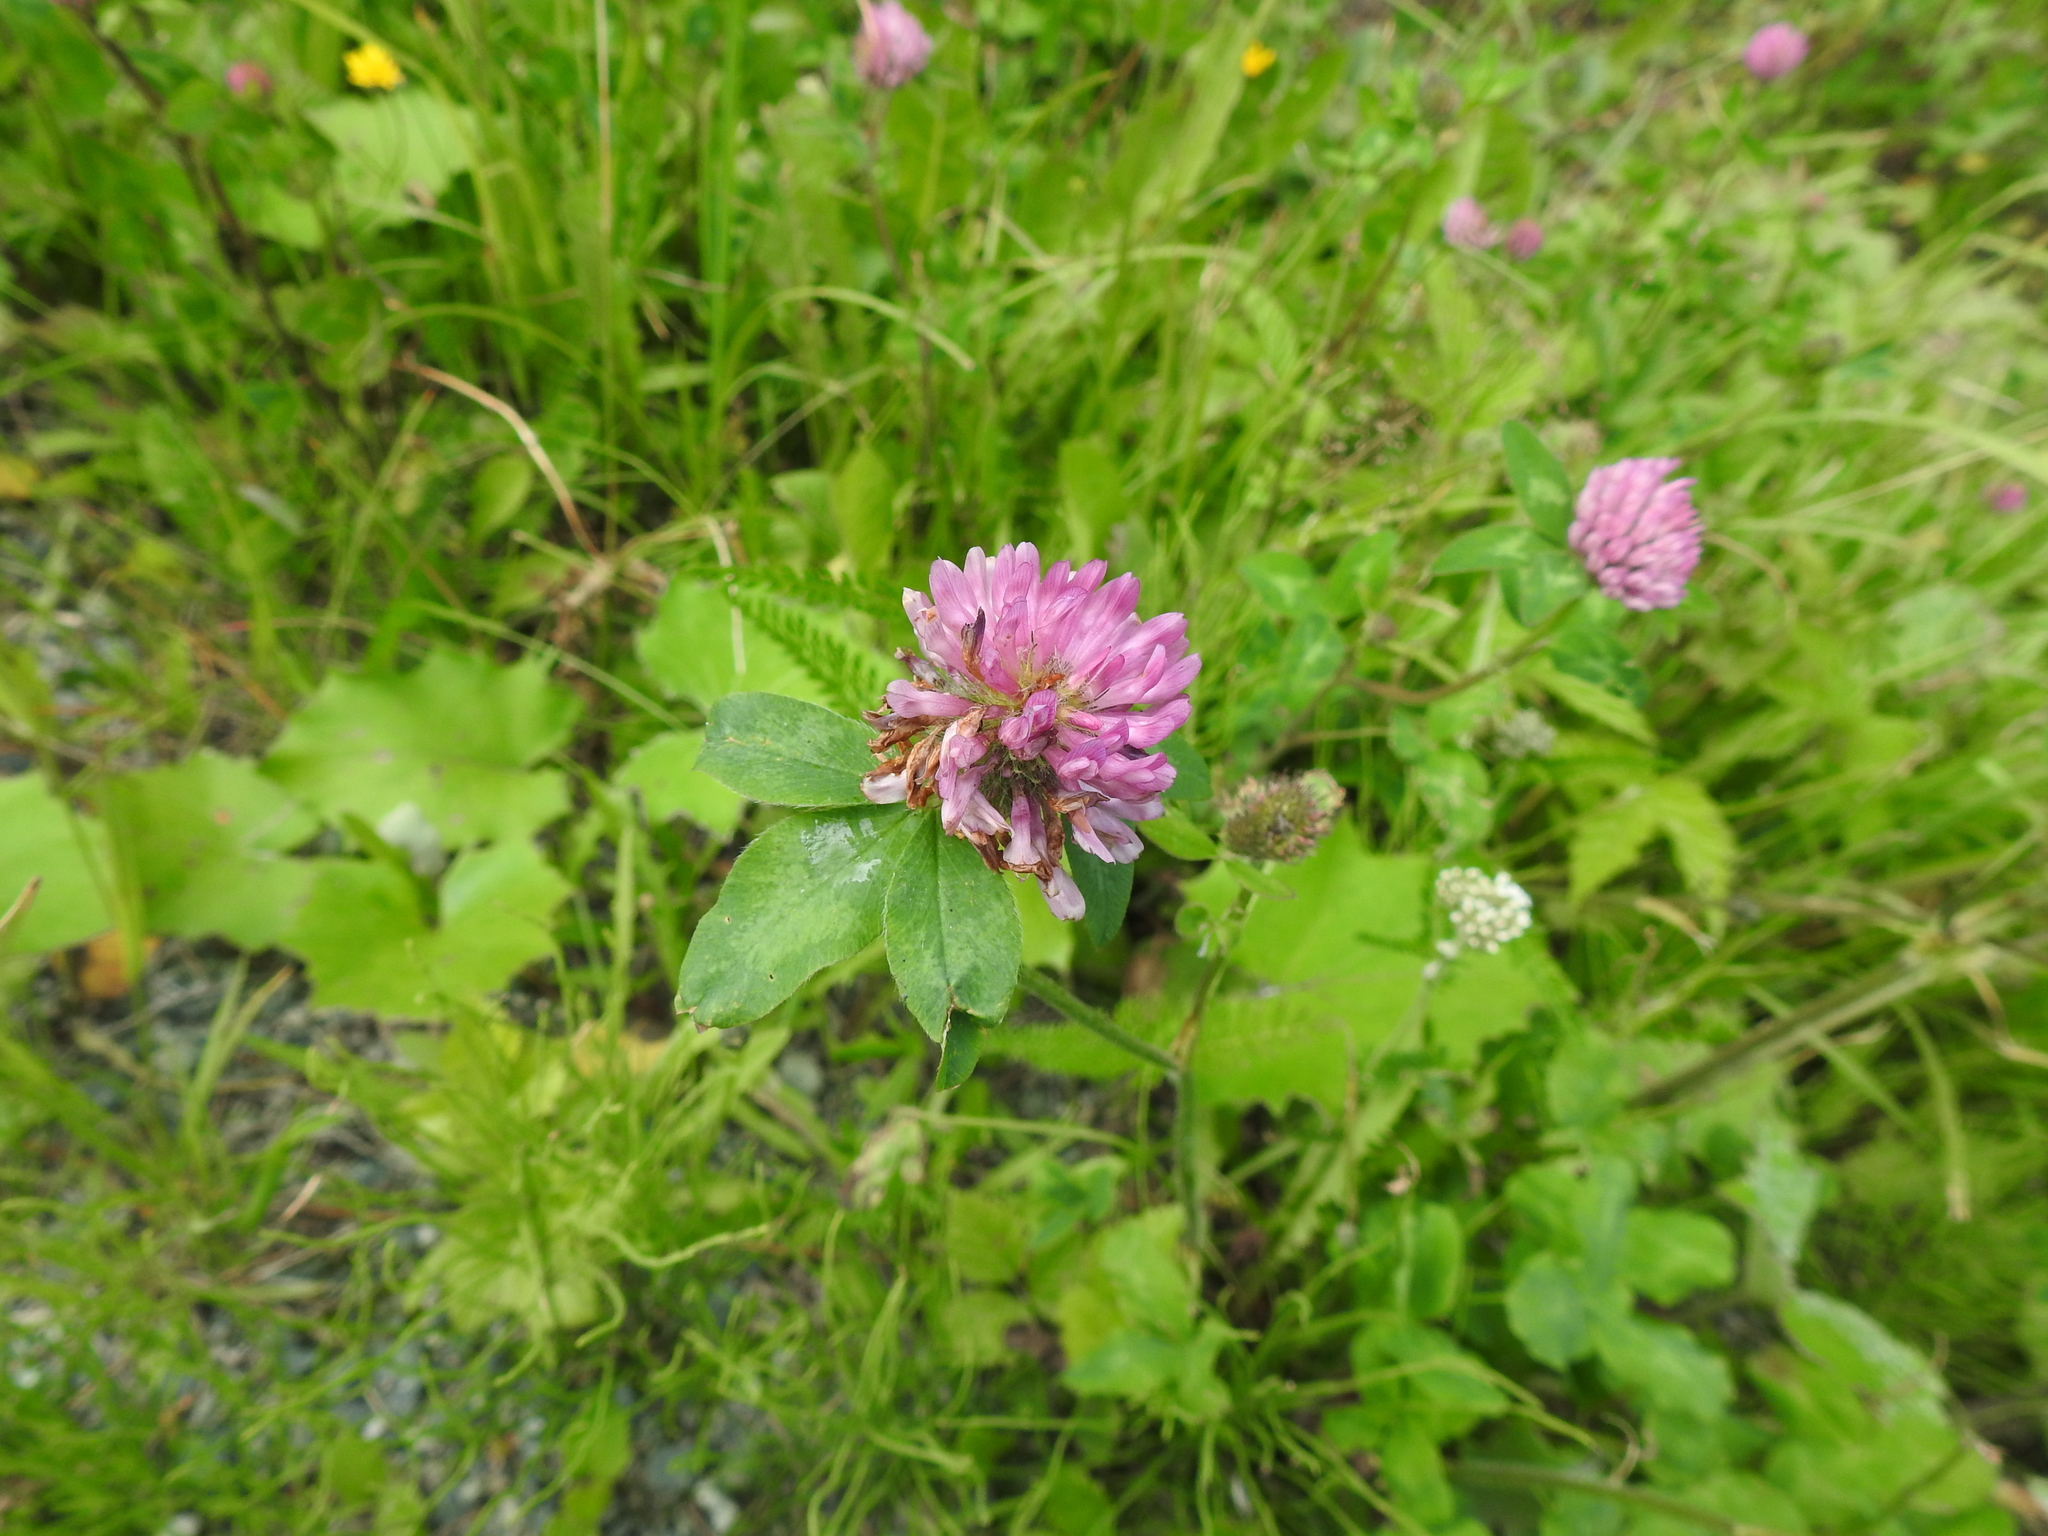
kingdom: Plantae
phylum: Tracheophyta
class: Magnoliopsida
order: Fabales
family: Fabaceae
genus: Trifolium
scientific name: Trifolium pratense
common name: Red clover
